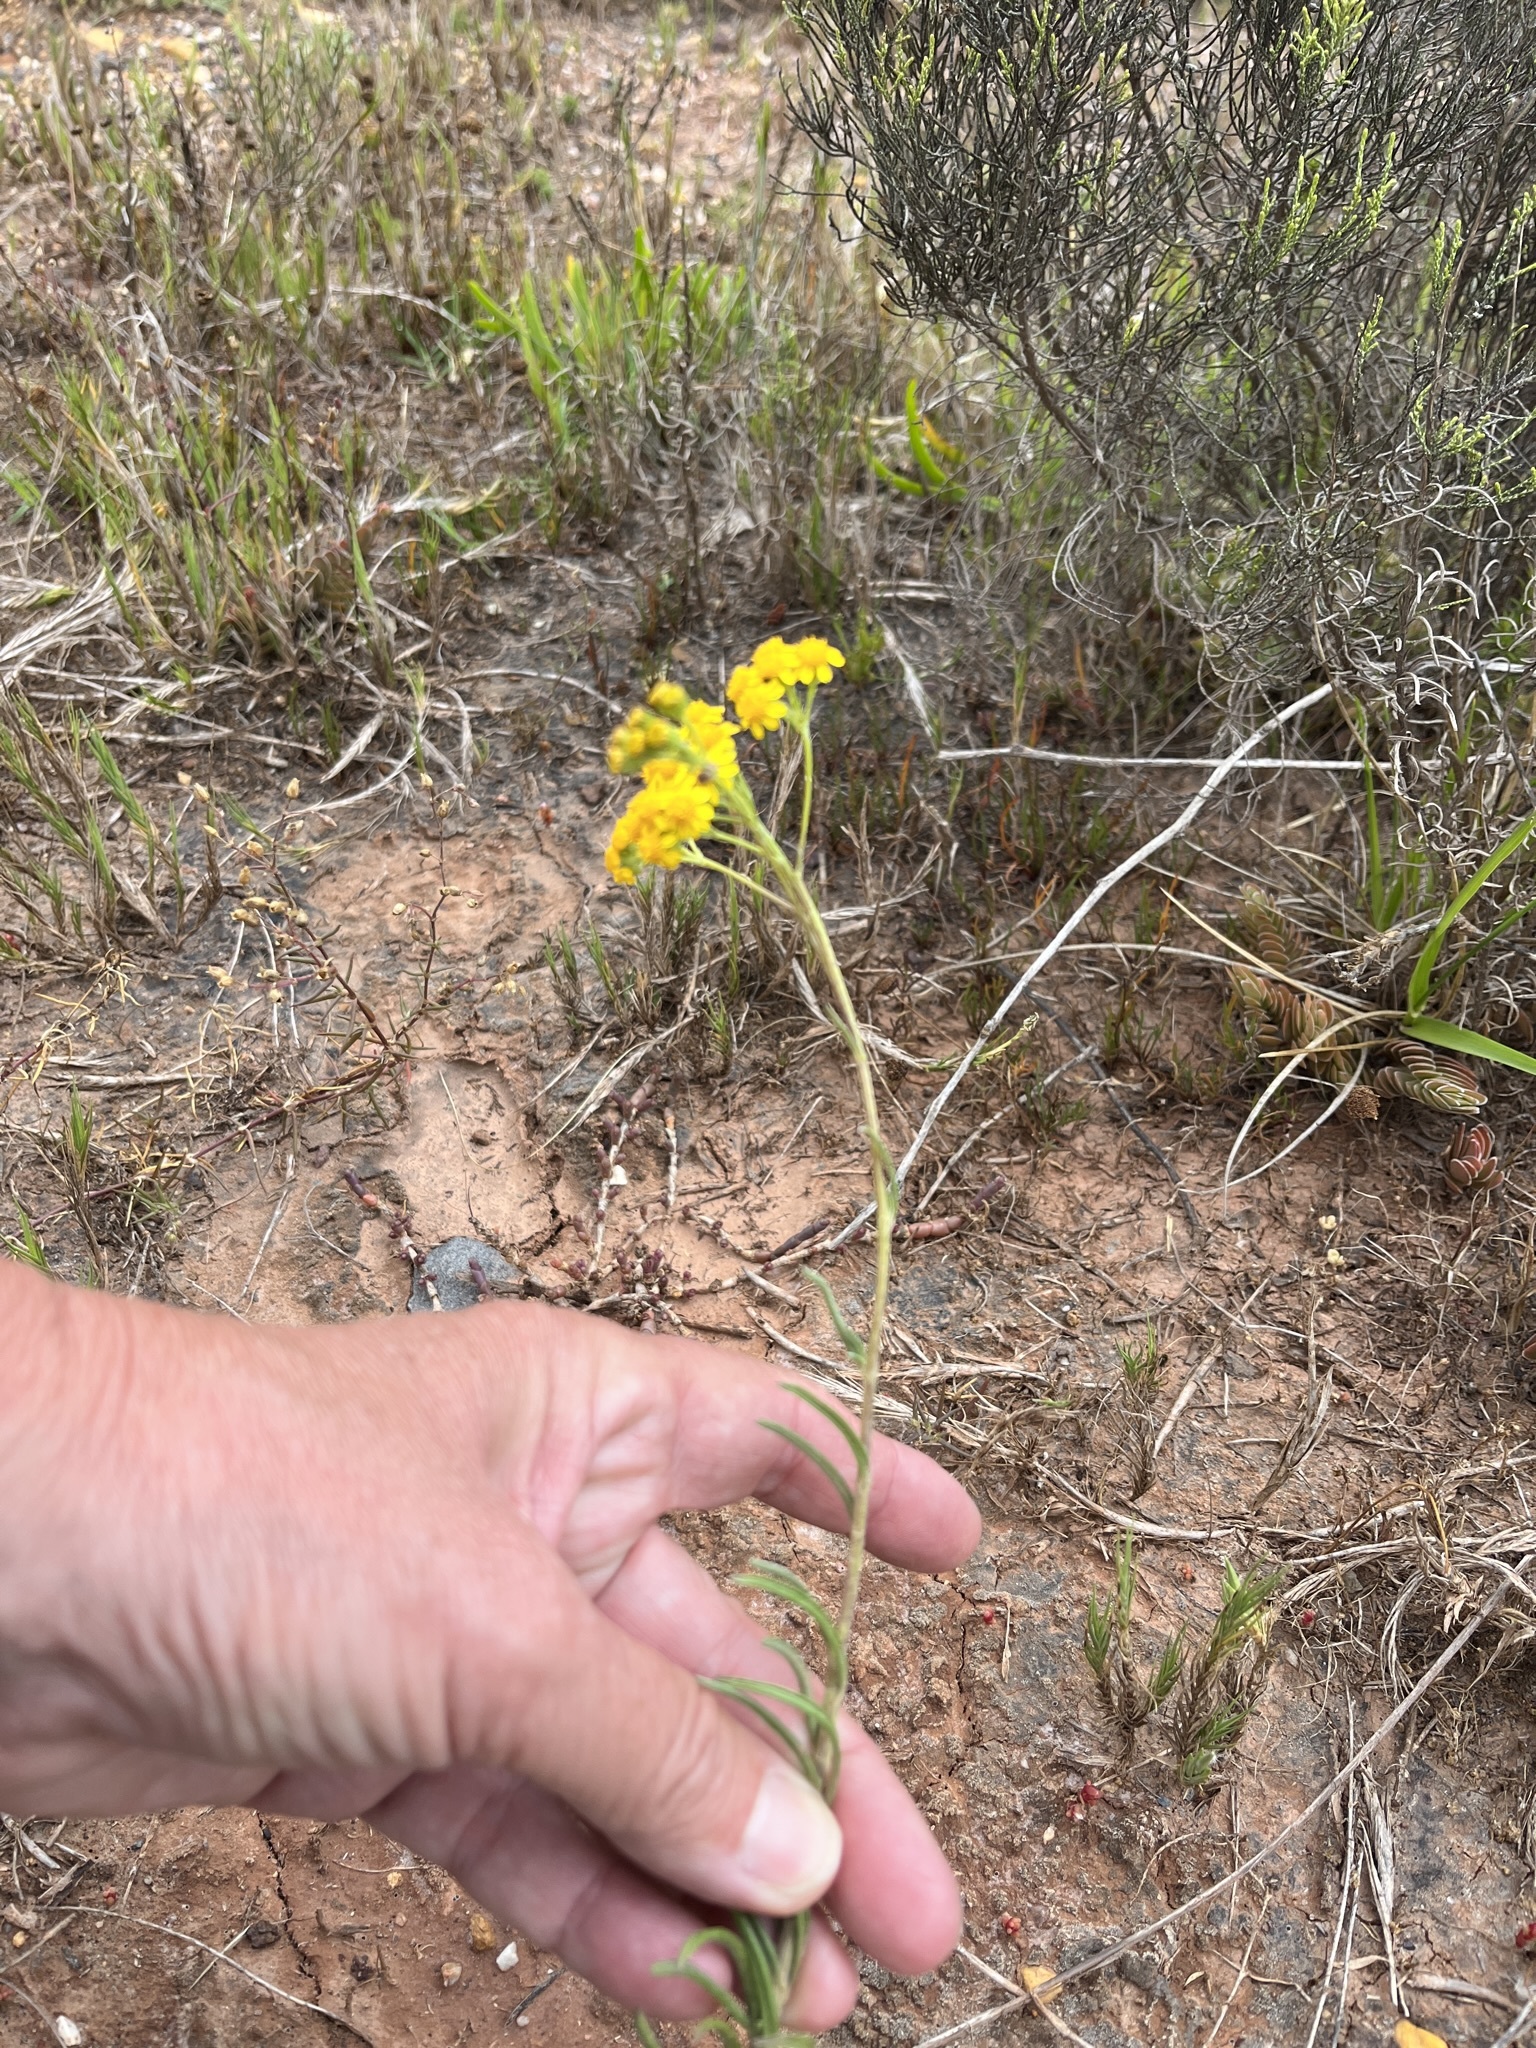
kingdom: Plantae
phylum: Tracheophyta
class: Magnoliopsida
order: Asterales
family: Asteraceae
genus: Senecio
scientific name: Senecio burchellii
